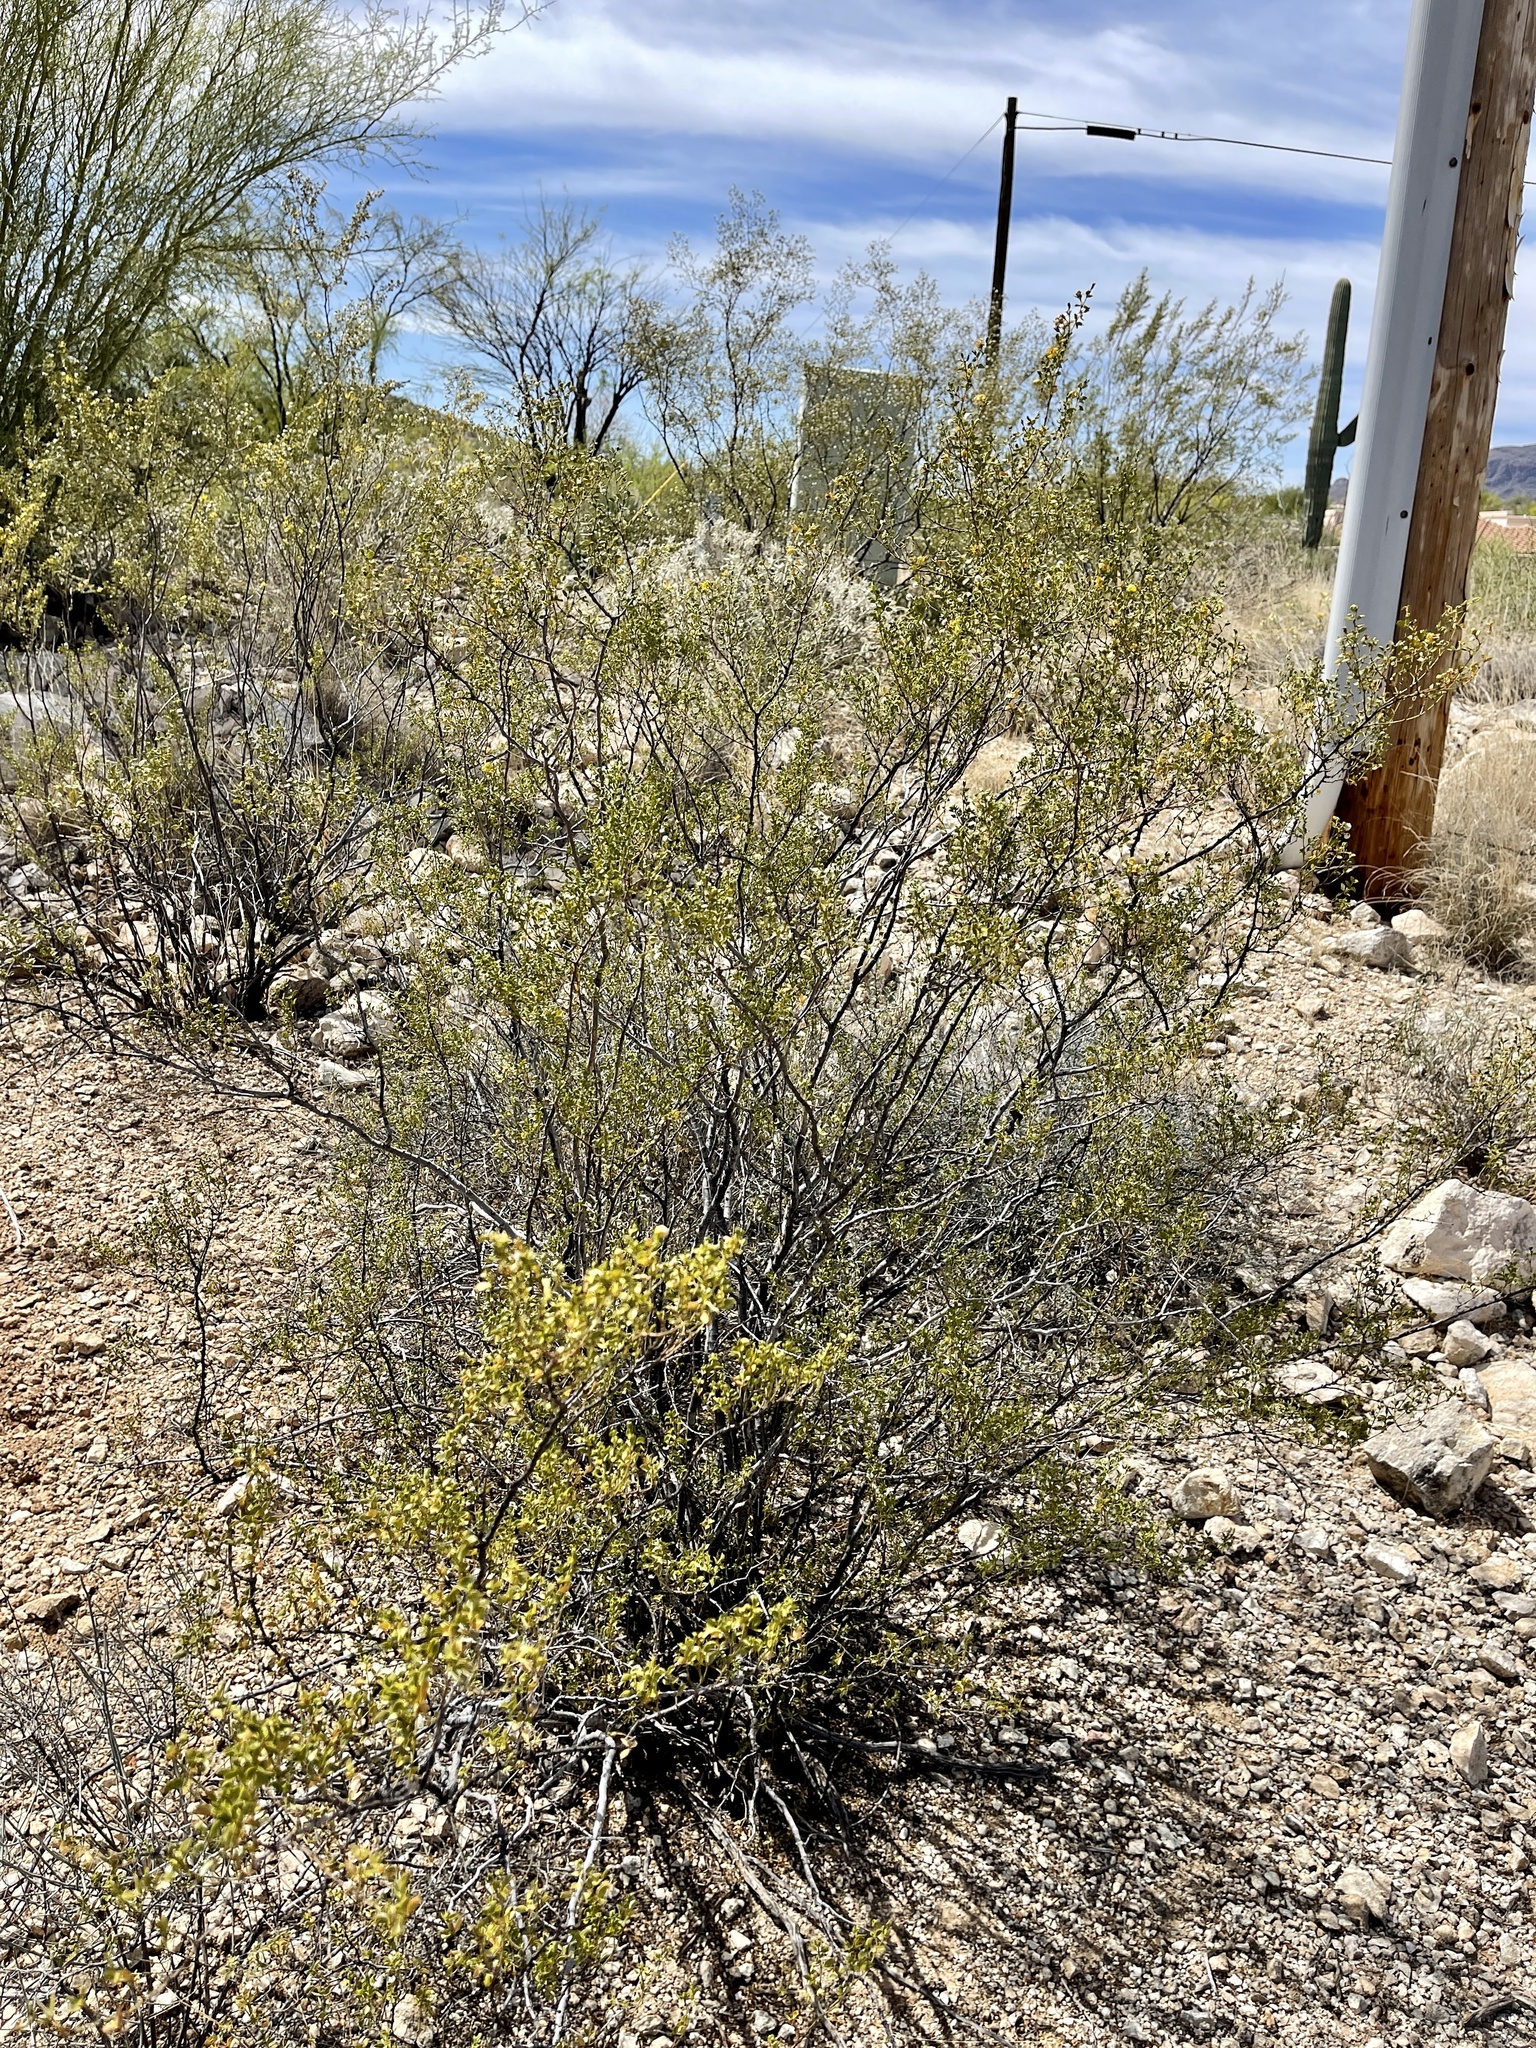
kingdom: Plantae
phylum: Tracheophyta
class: Magnoliopsida
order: Zygophyllales
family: Zygophyllaceae
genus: Larrea
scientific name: Larrea tridentata
